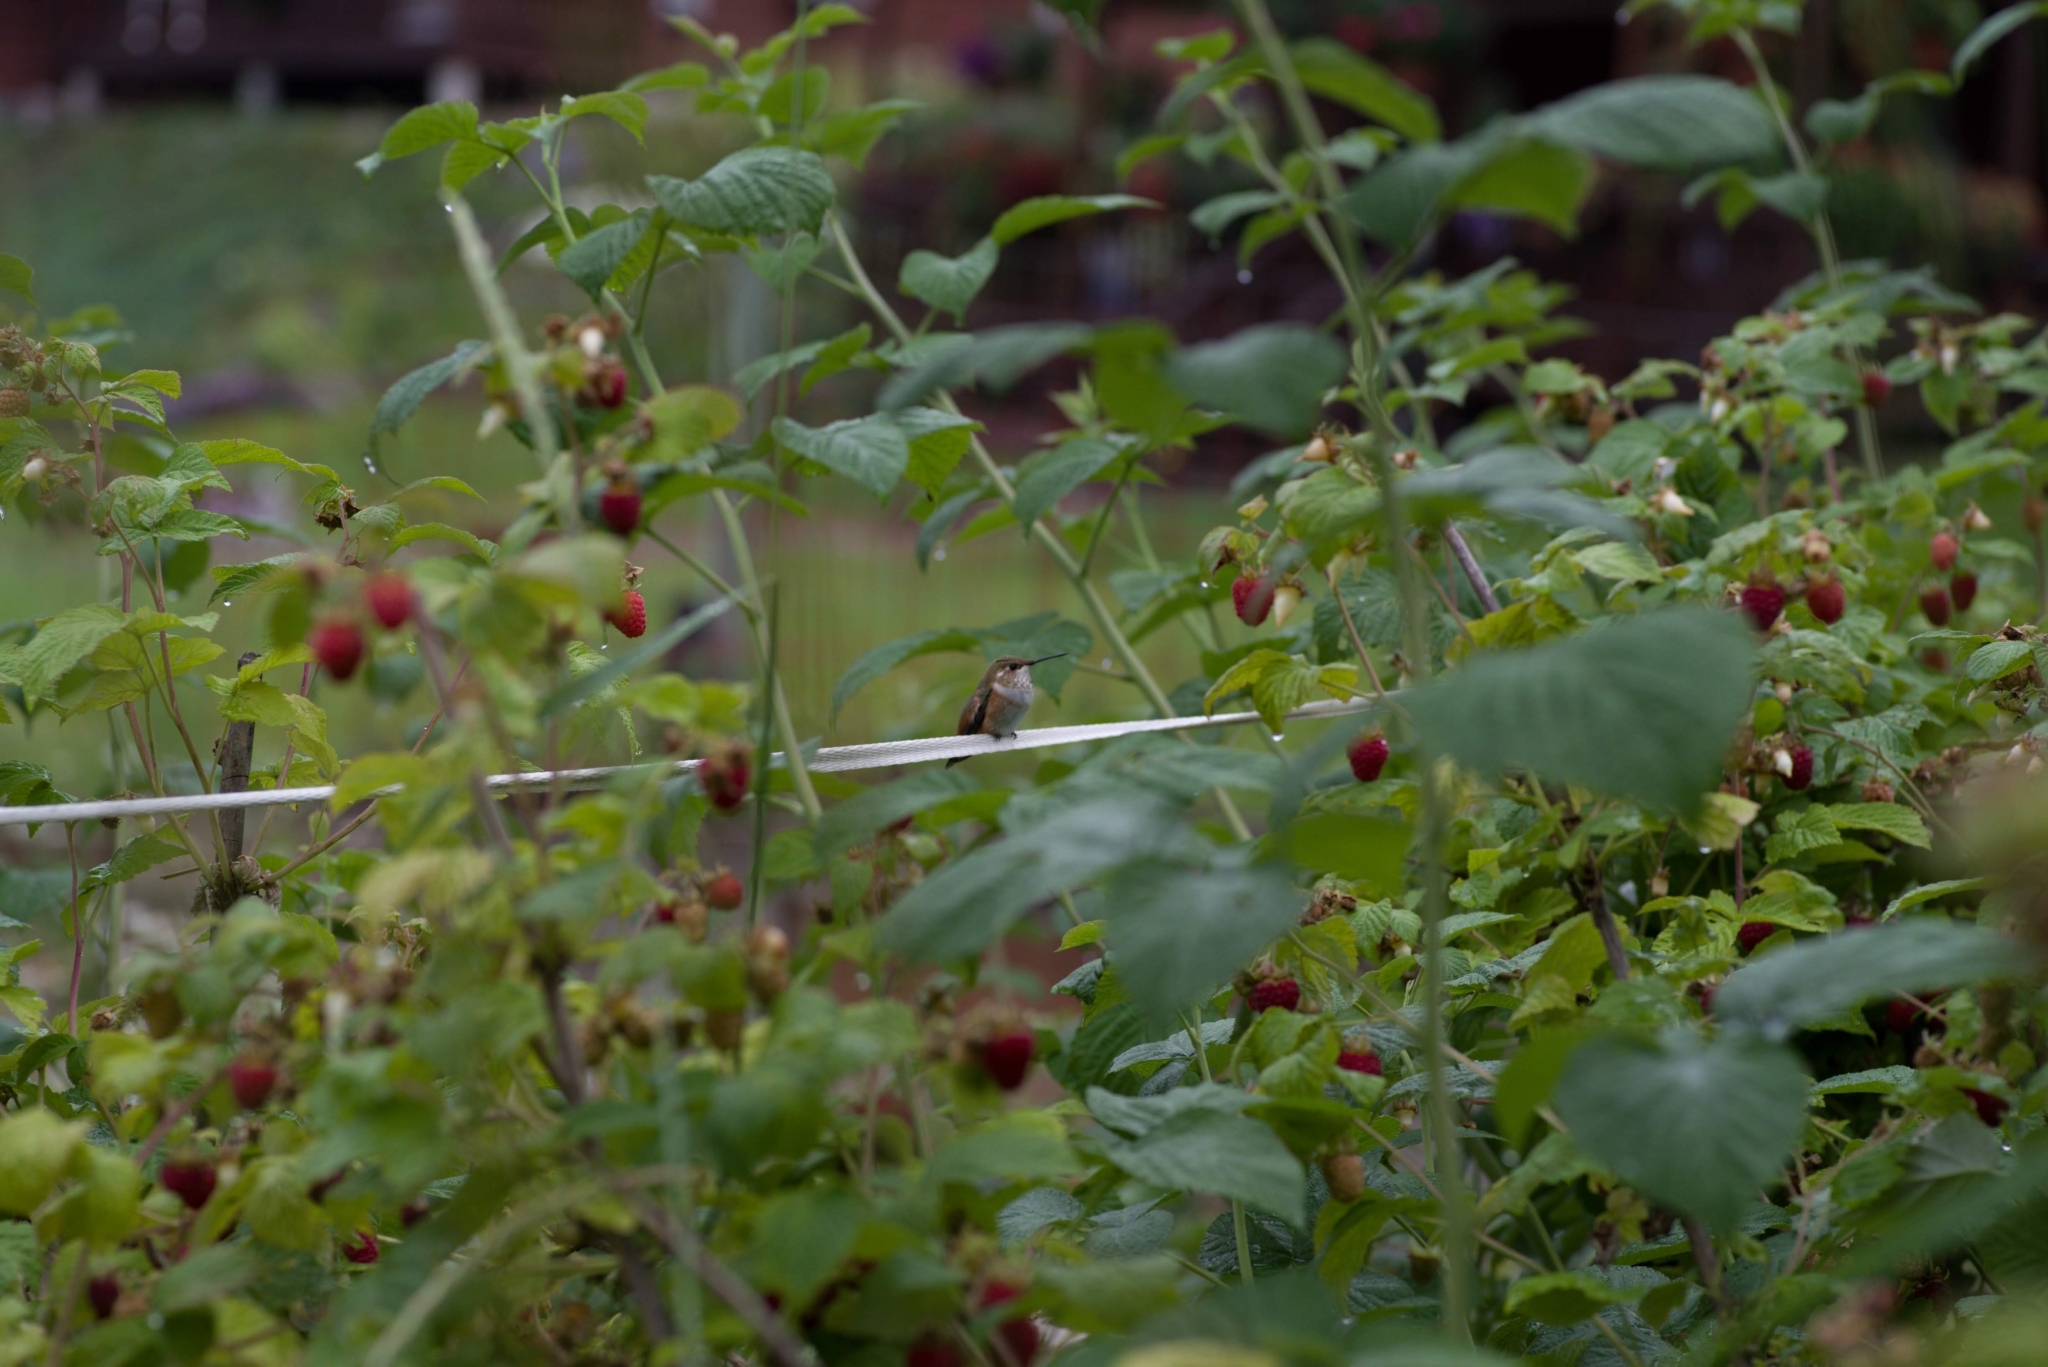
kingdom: Animalia
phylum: Chordata
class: Aves
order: Apodiformes
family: Trochilidae
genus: Selasphorus
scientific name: Selasphorus rufus
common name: Rufous hummingbird
